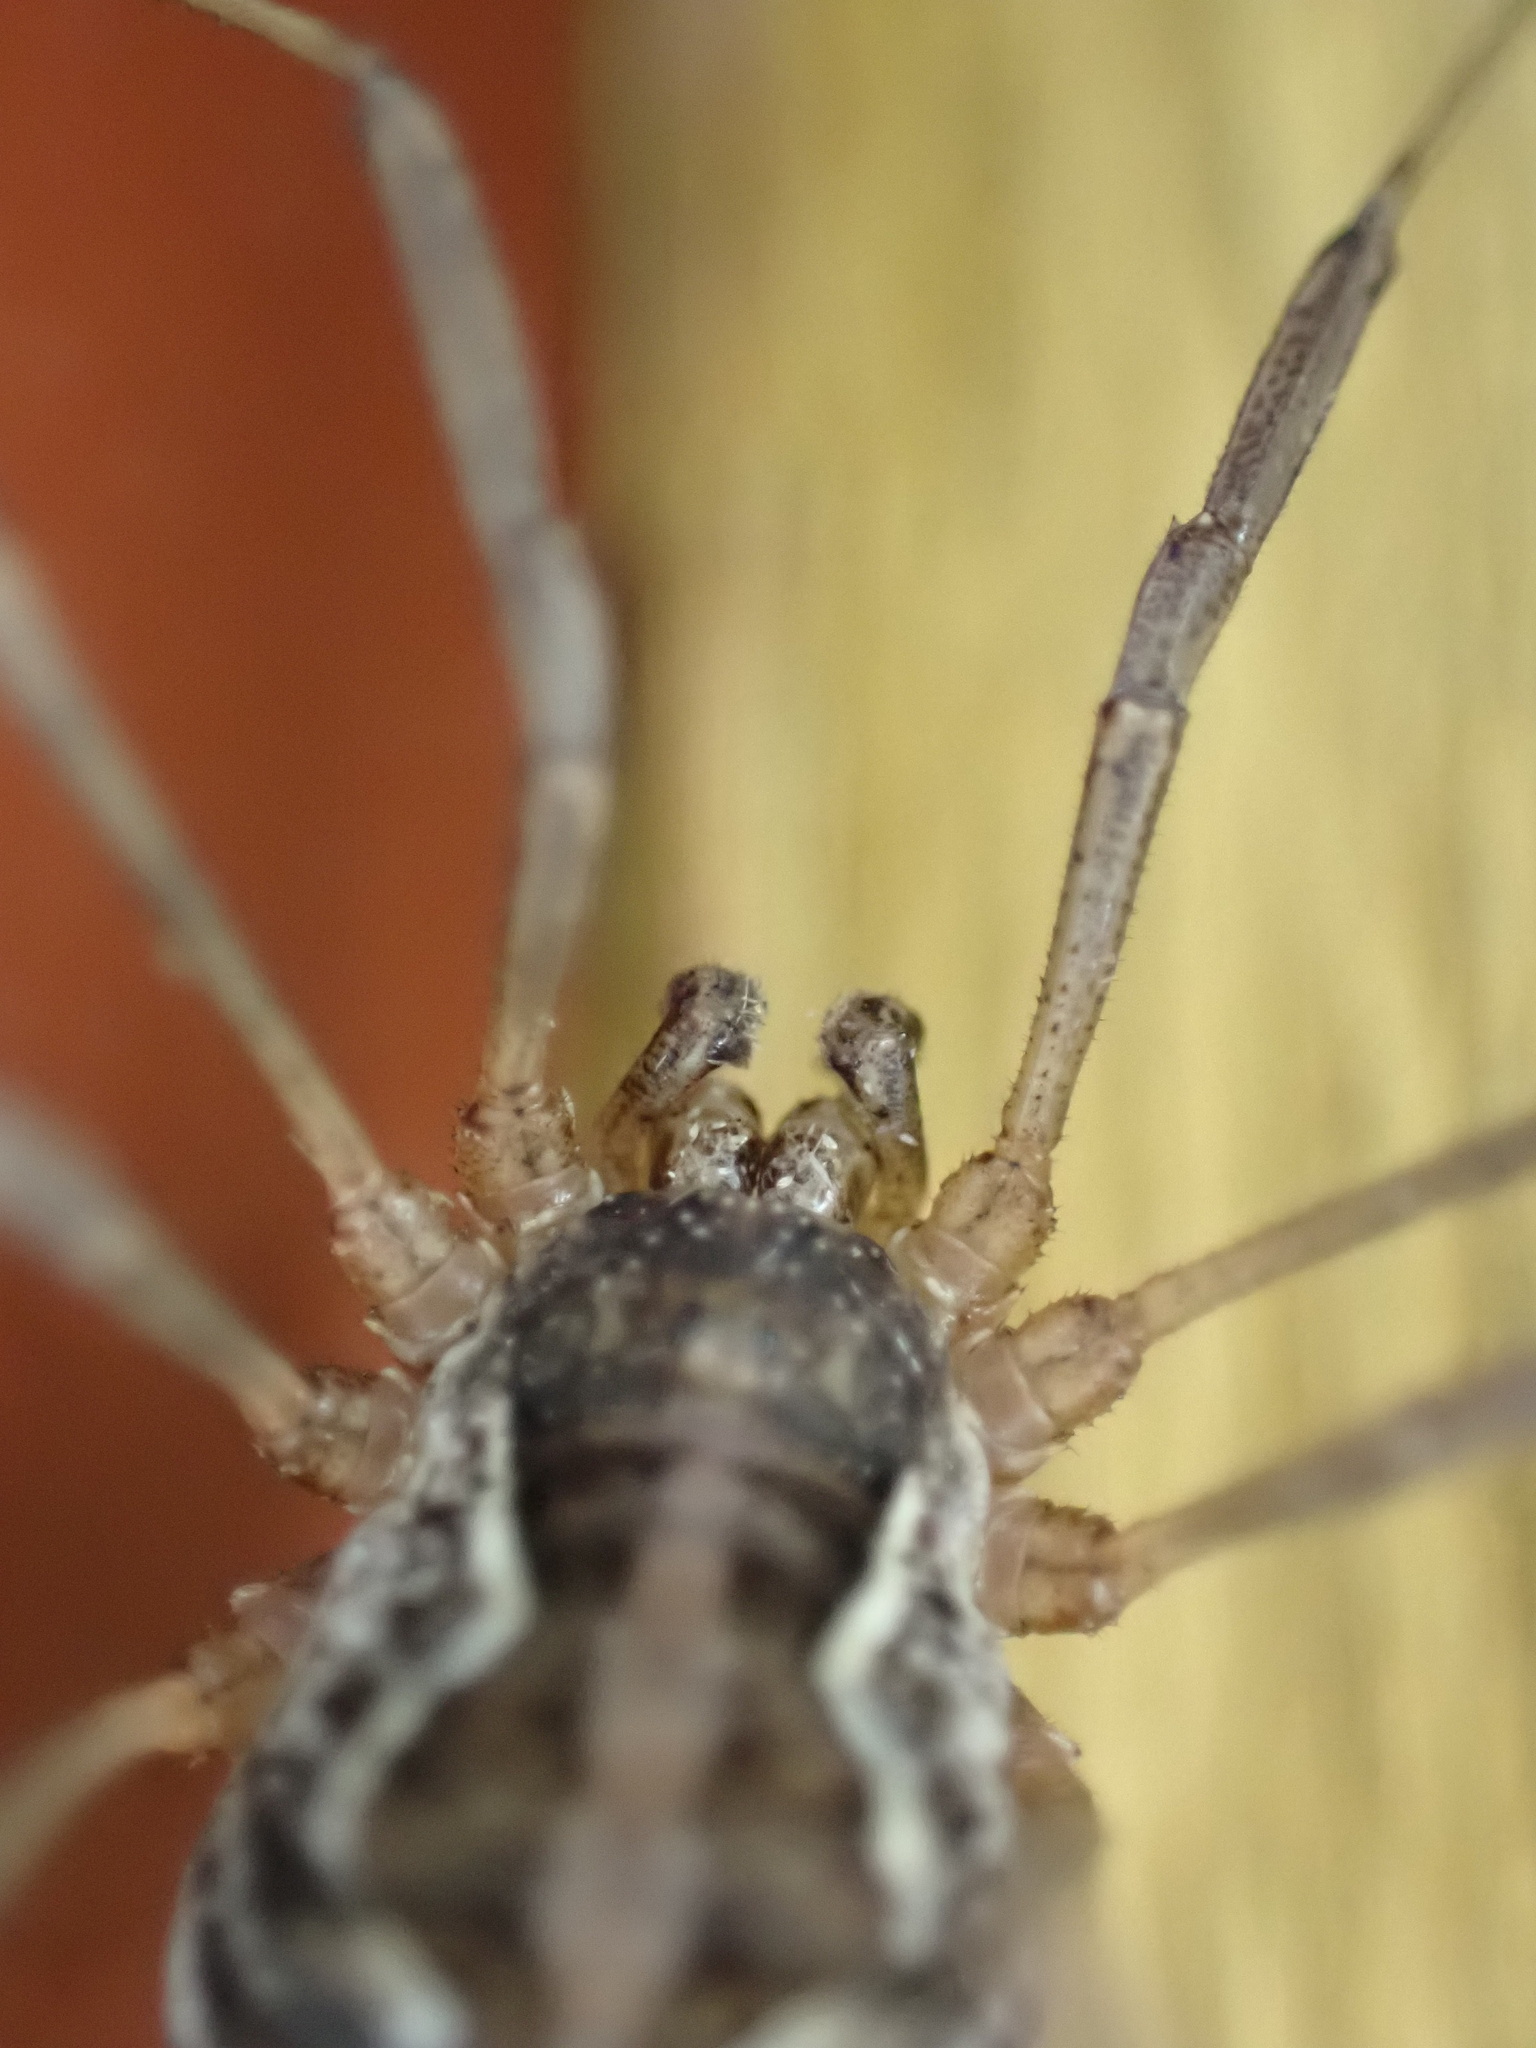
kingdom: Animalia
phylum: Arthropoda
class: Arachnida
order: Opiliones
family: Phalangiidae
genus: Mitopus
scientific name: Mitopus morio
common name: Saddleback harvestman
